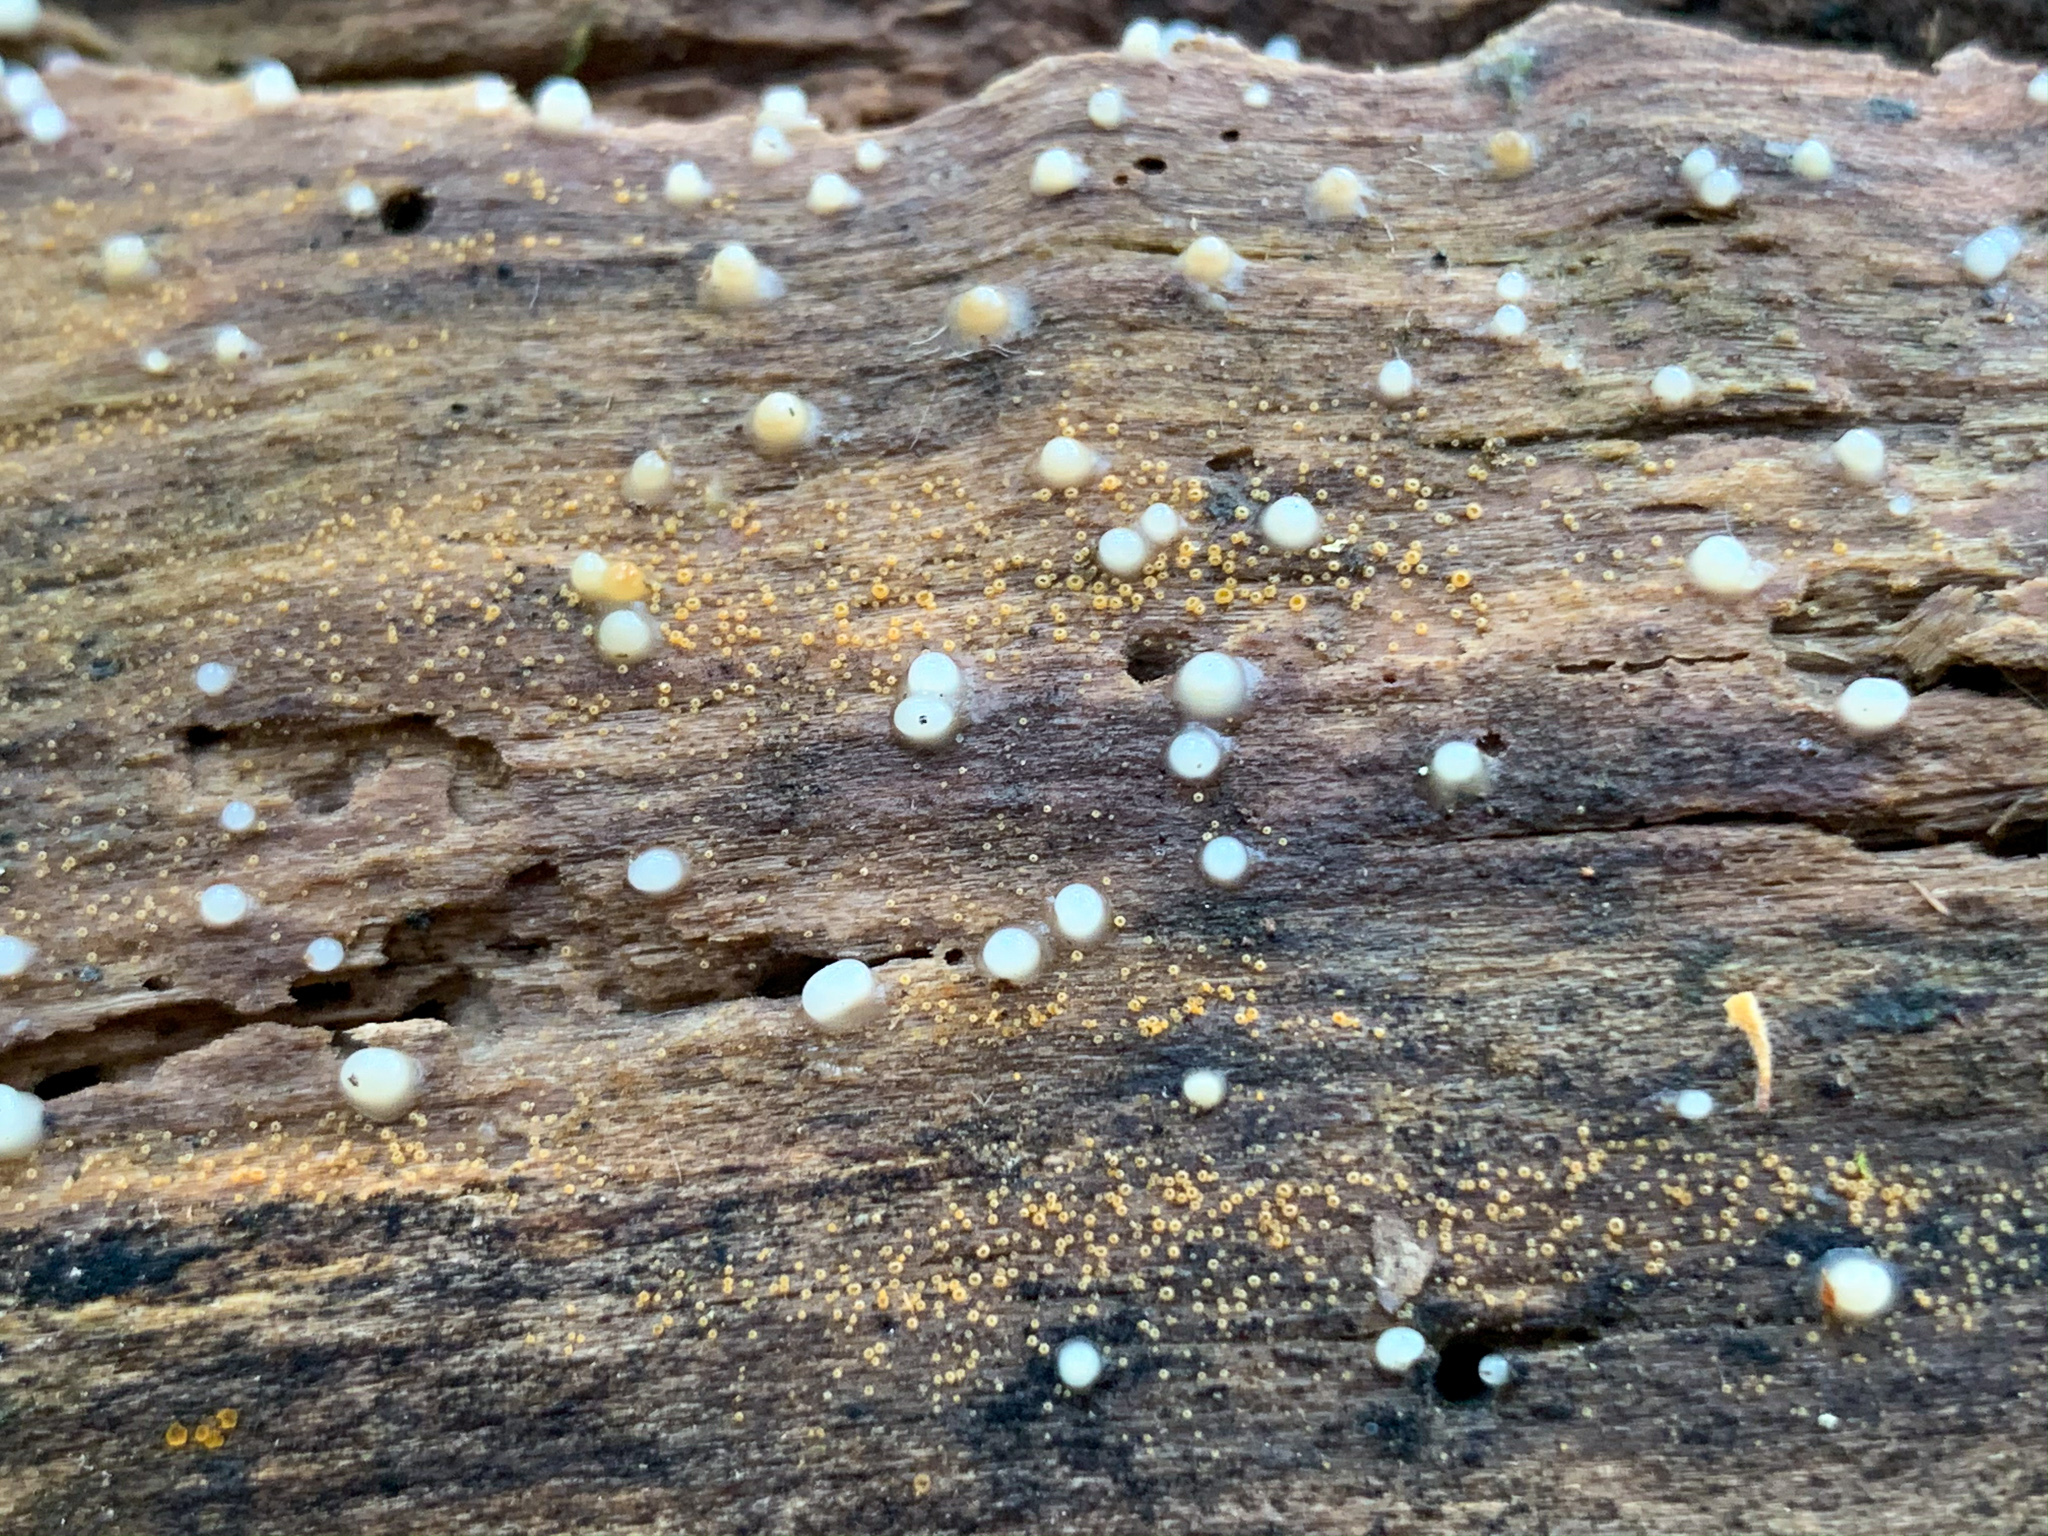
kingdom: Fungi
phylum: Basidiomycota
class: Atractiellomycetes
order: Atractiellales
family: Phleogenaceae
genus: Helicogloea
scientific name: Helicogloea compressa
